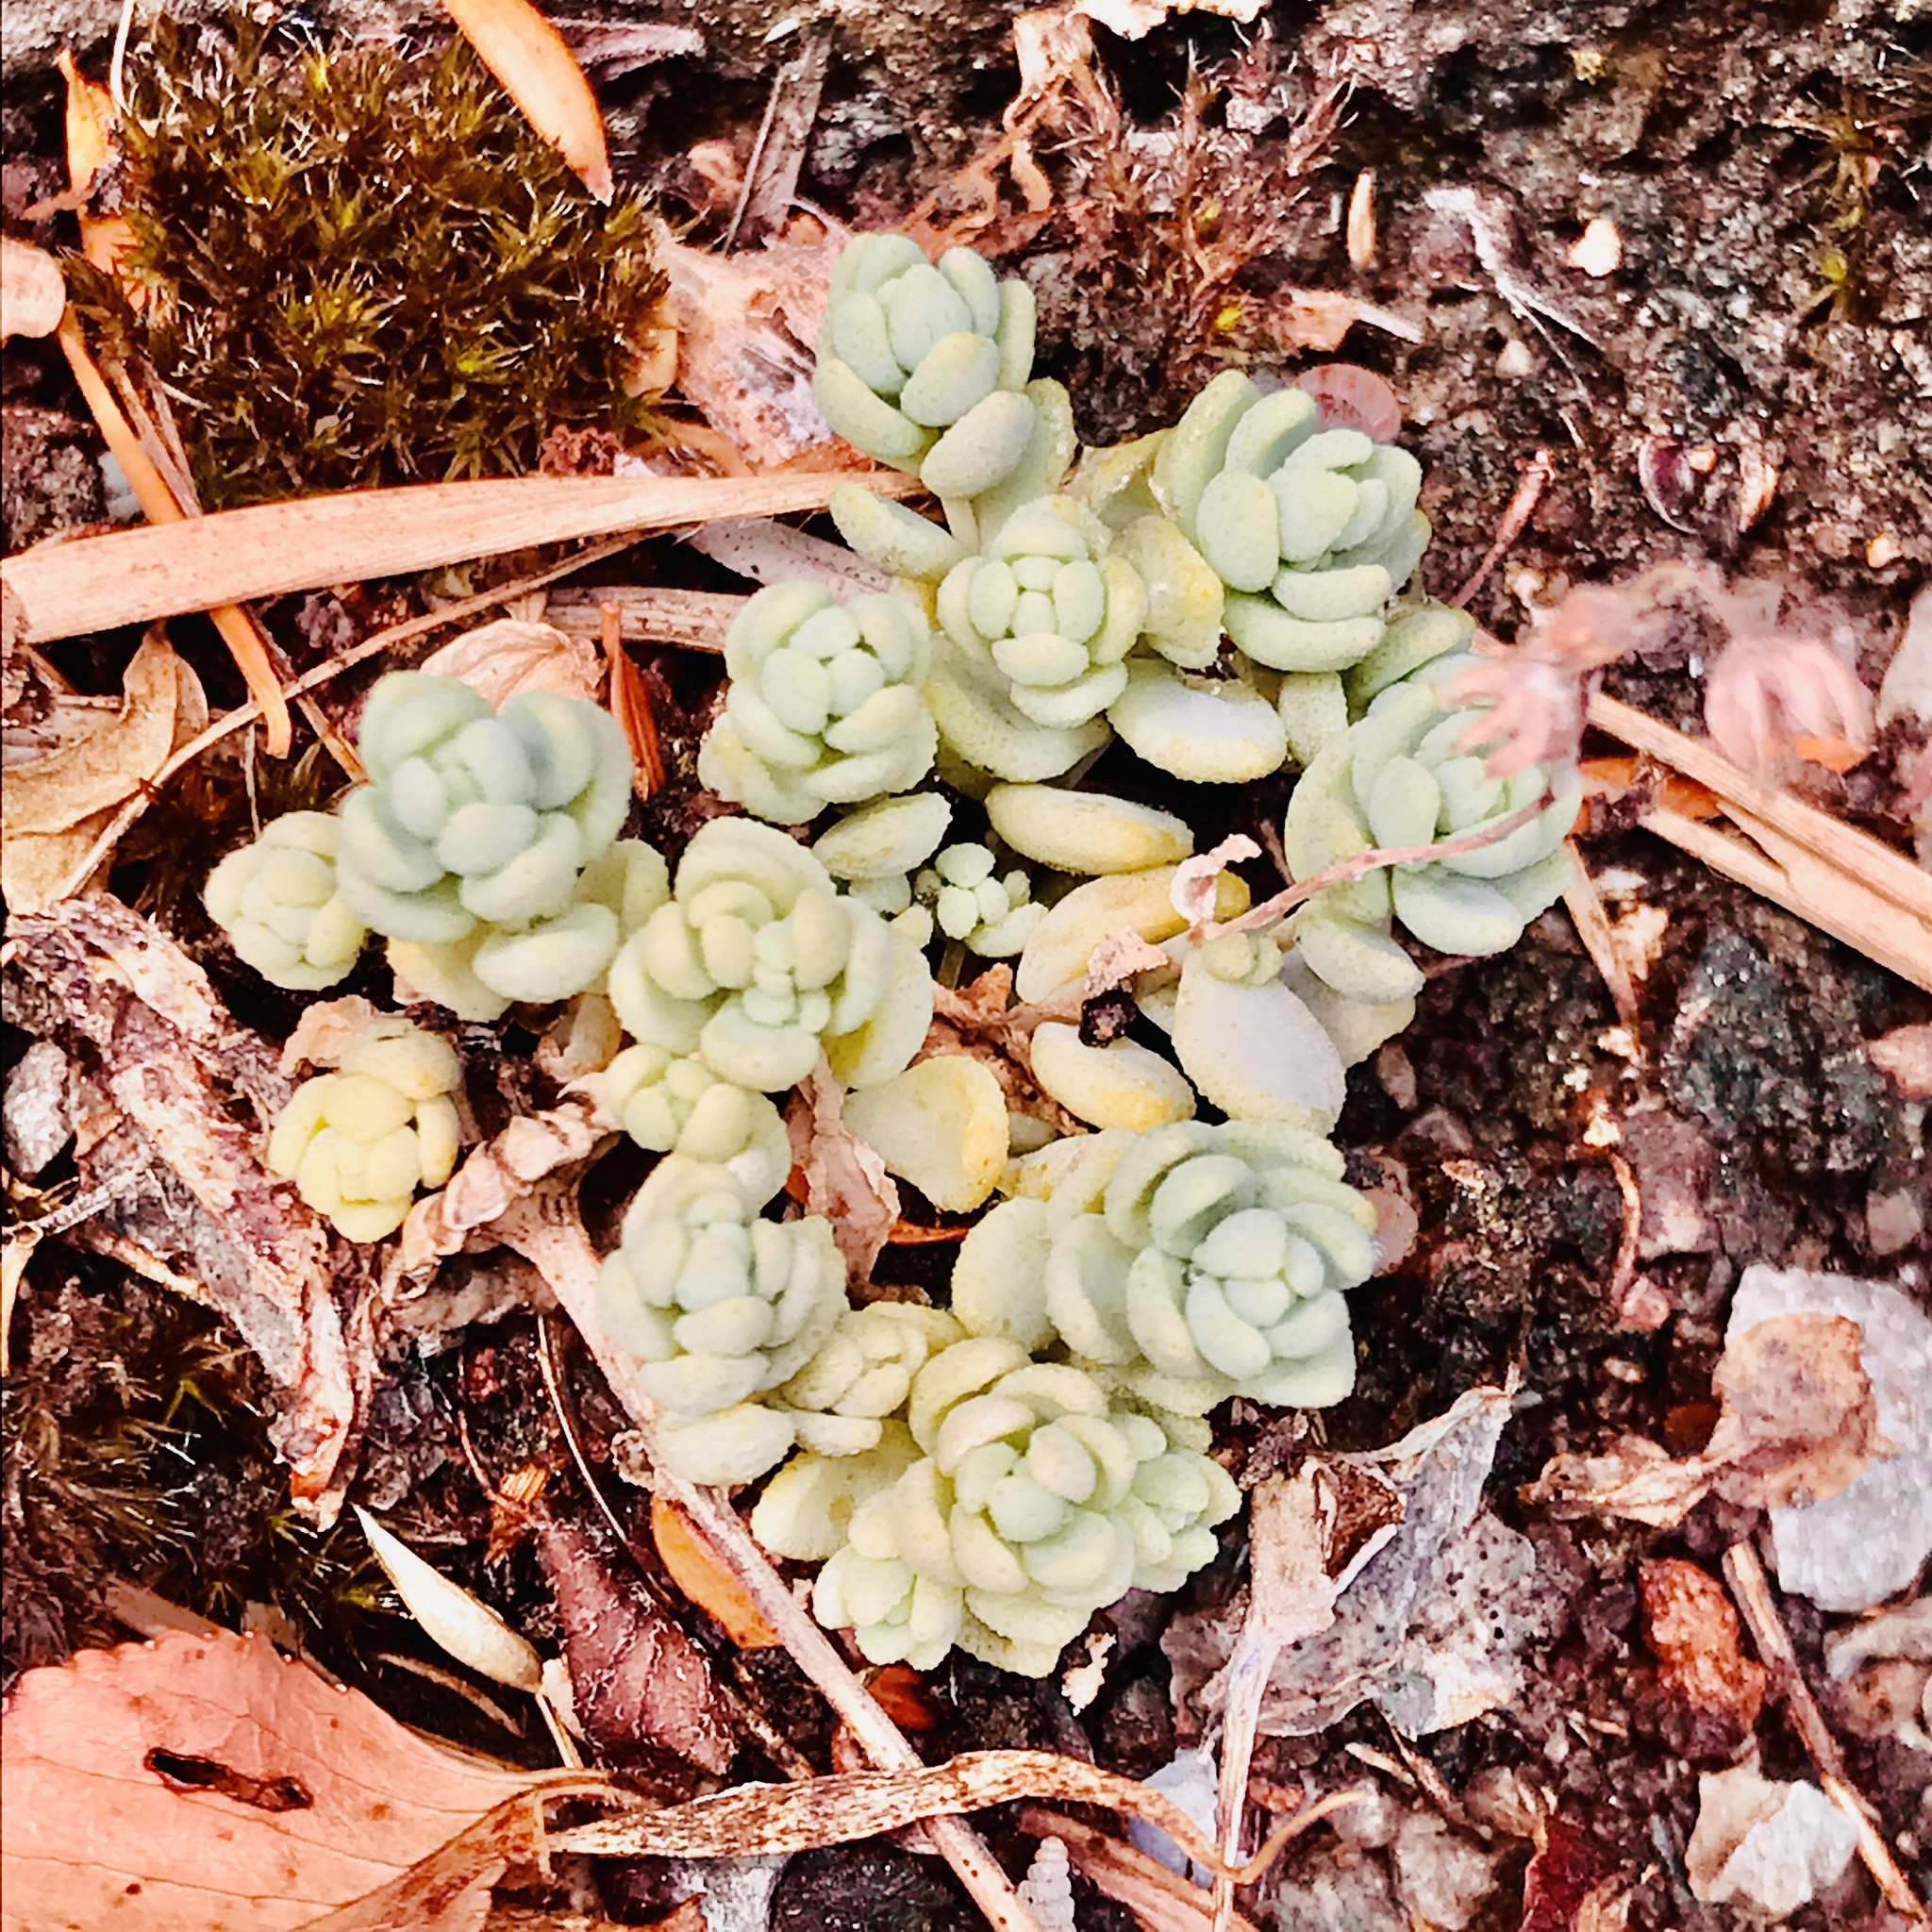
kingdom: Plantae
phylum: Tracheophyta
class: Magnoliopsida
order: Saxifragales
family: Crassulaceae
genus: Sedum
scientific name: Sedum dasyphyllum
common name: Thick-leaf stonecrop
